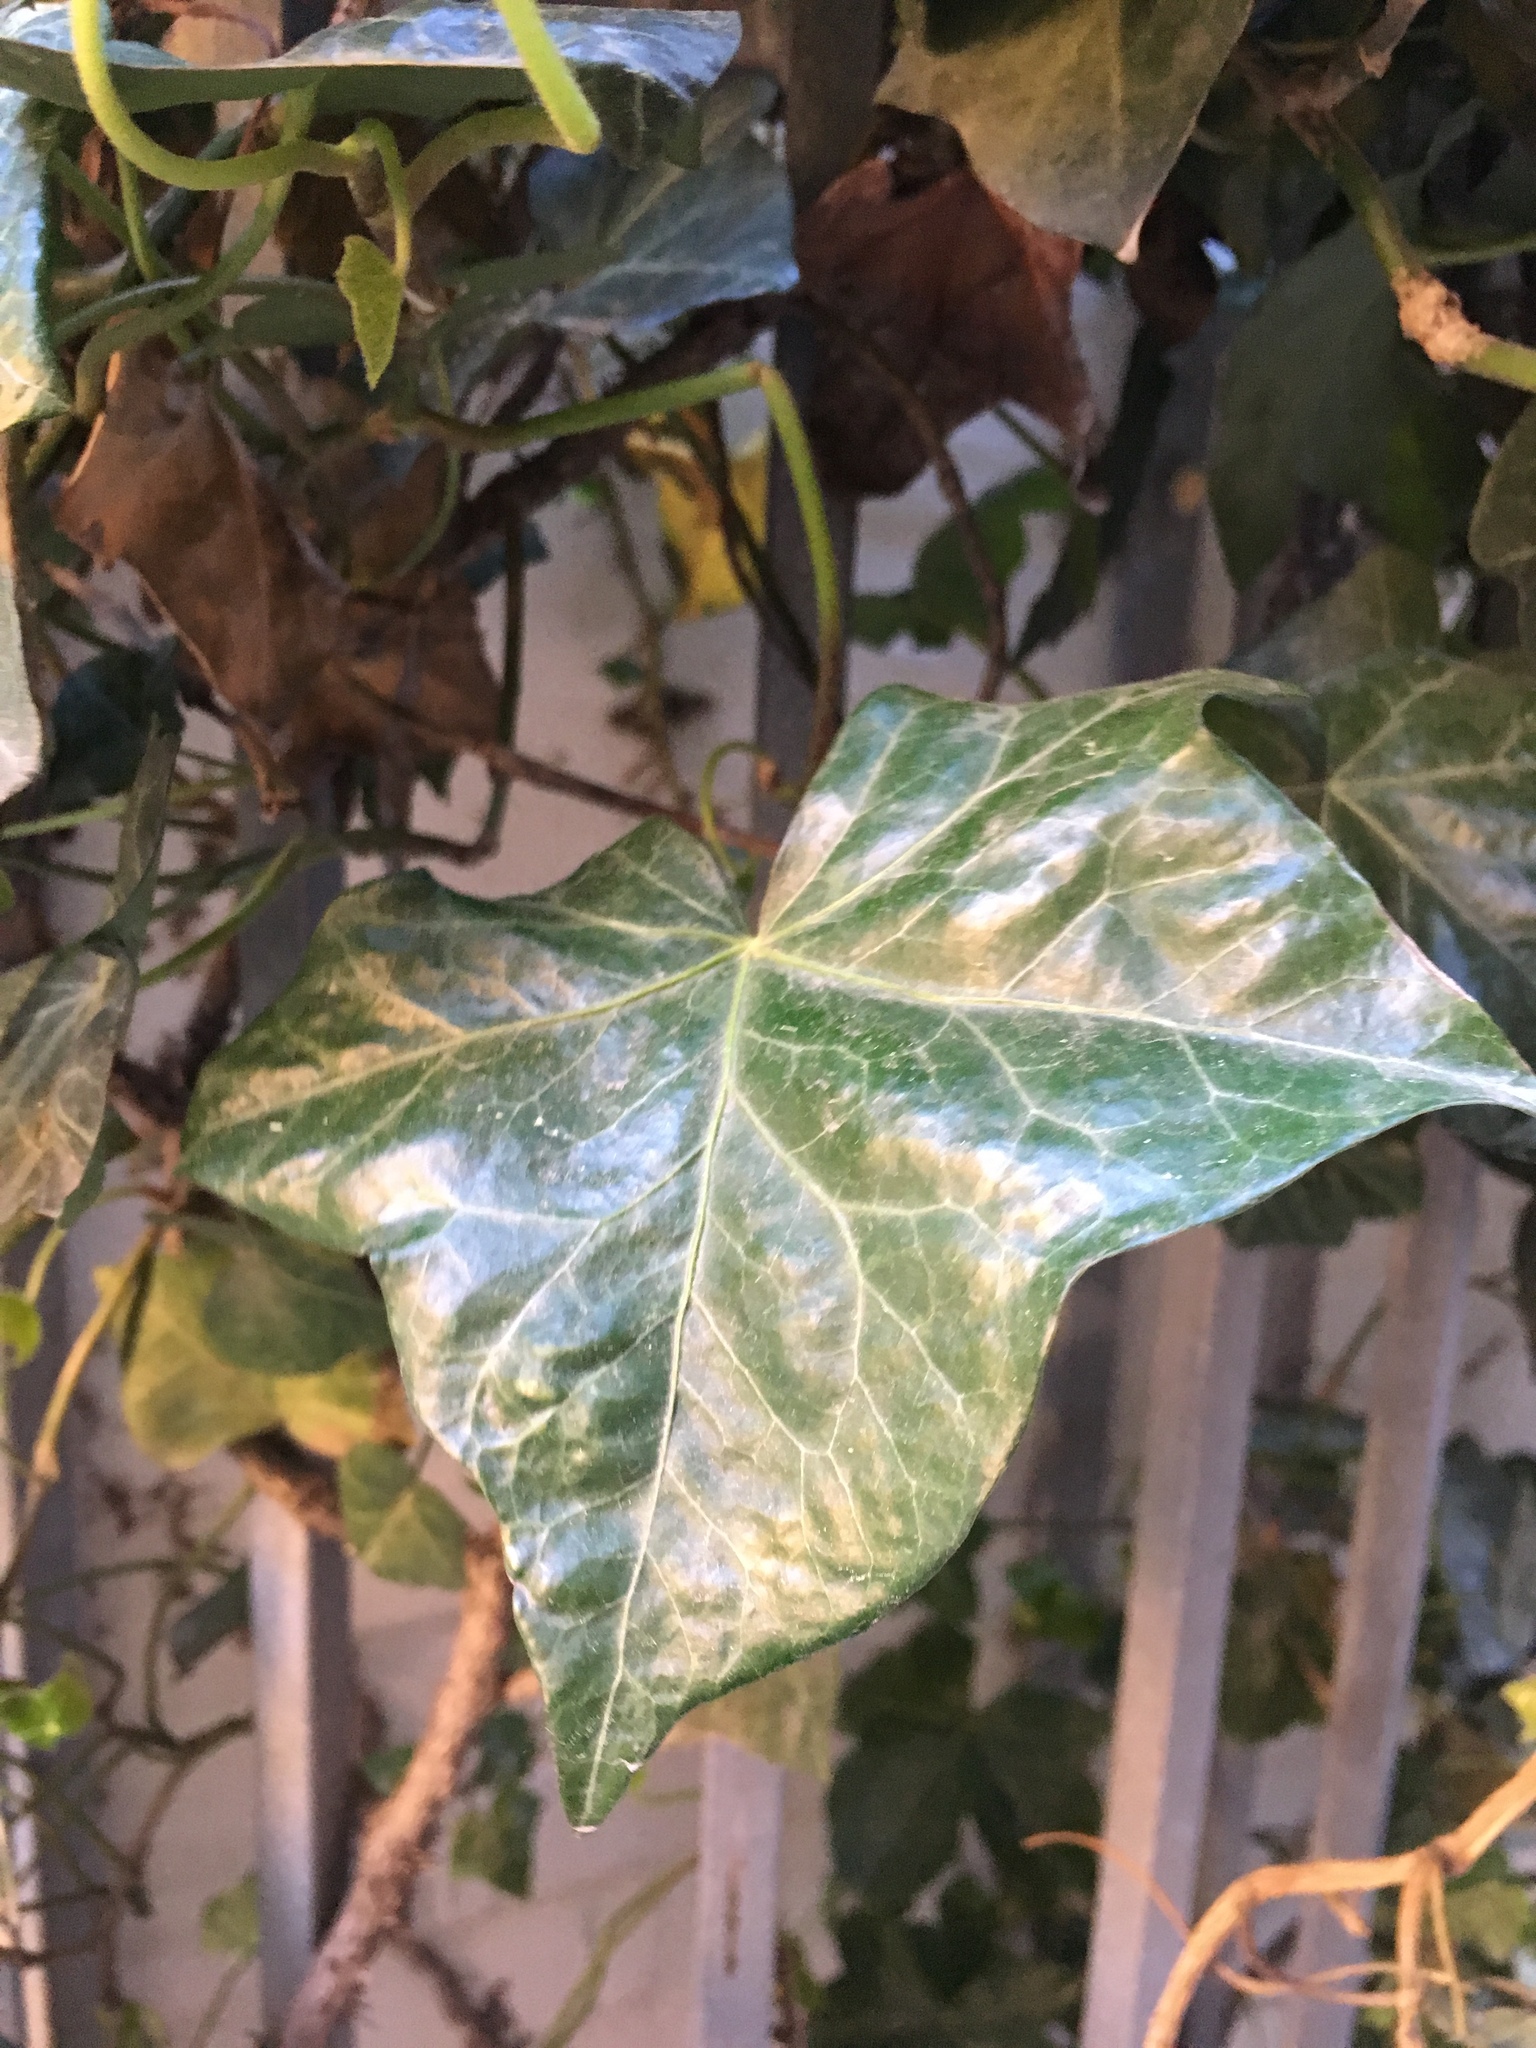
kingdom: Plantae
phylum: Tracheophyta
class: Magnoliopsida
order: Apiales
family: Araliaceae
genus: Hedera
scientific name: Hedera helix
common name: Ivy
